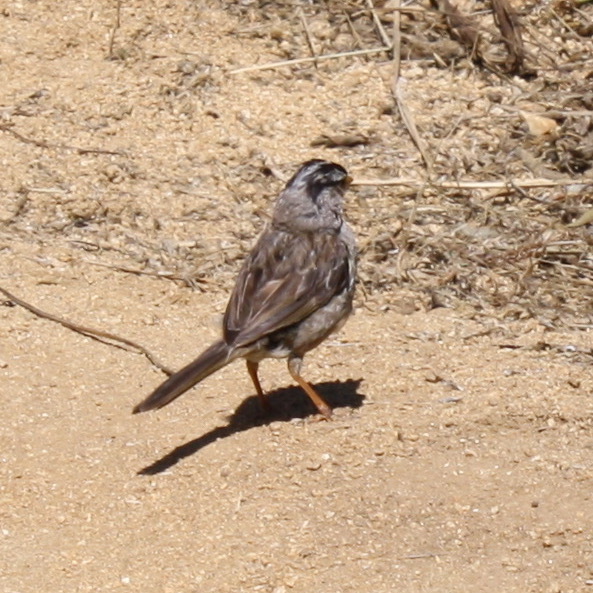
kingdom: Animalia
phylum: Chordata
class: Aves
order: Passeriformes
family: Passerellidae
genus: Zonotrichia
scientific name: Zonotrichia leucophrys
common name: White-crowned sparrow
